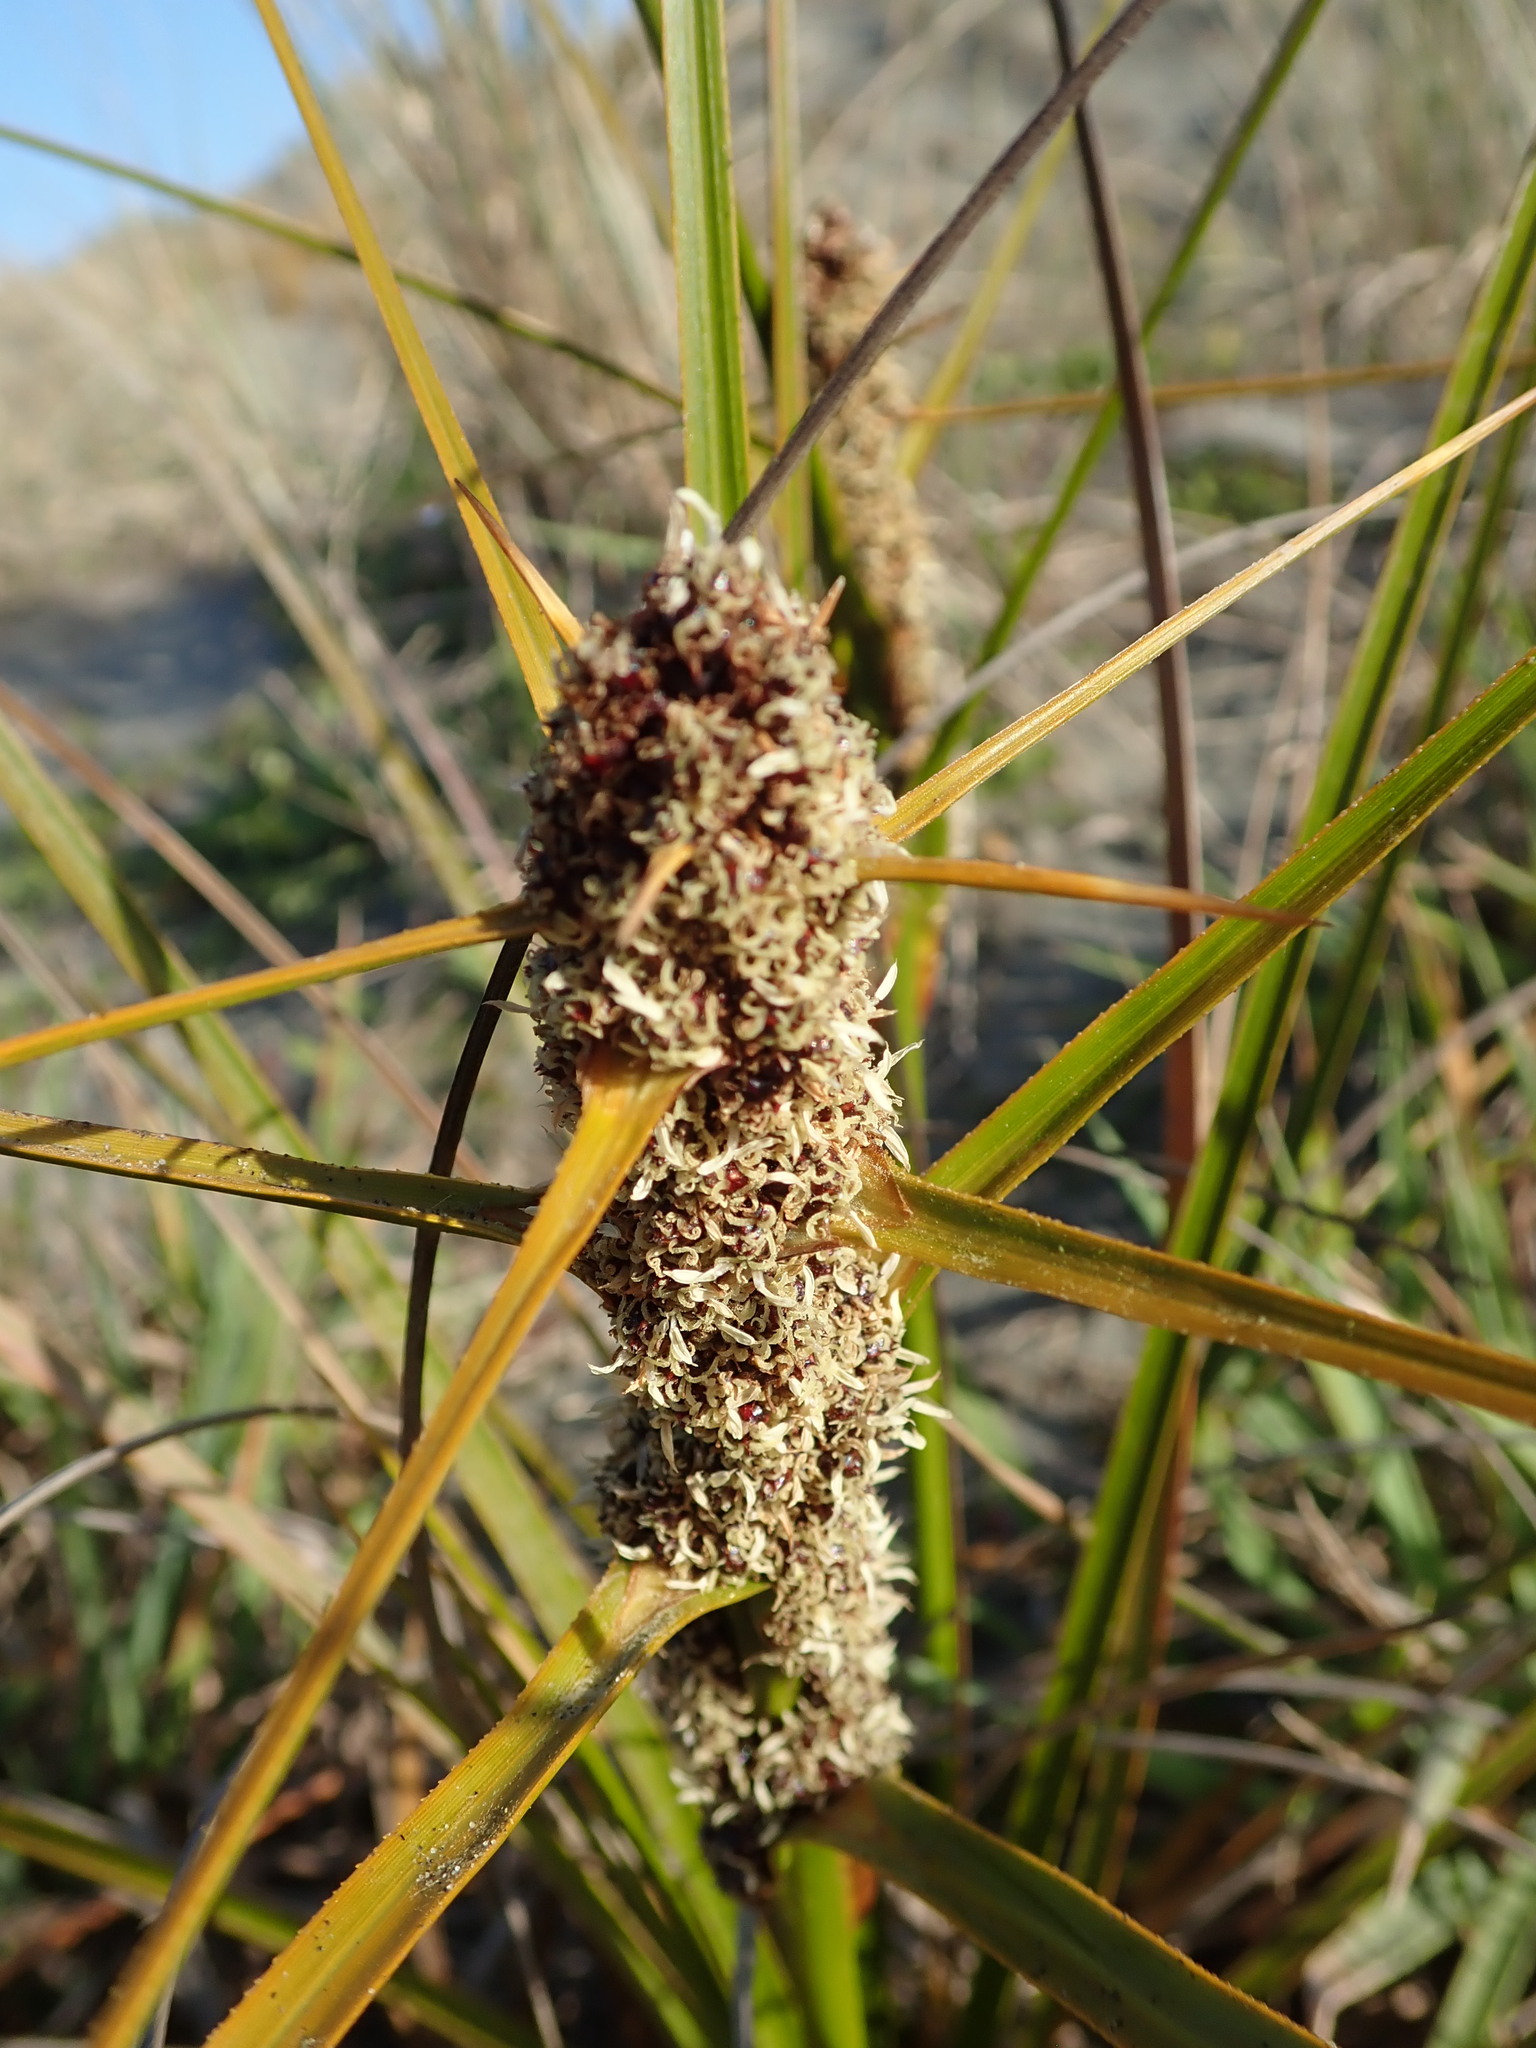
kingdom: Plantae
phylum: Tracheophyta
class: Liliopsida
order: Poales
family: Cyperaceae
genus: Ficinia
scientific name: Ficinia spiralis
